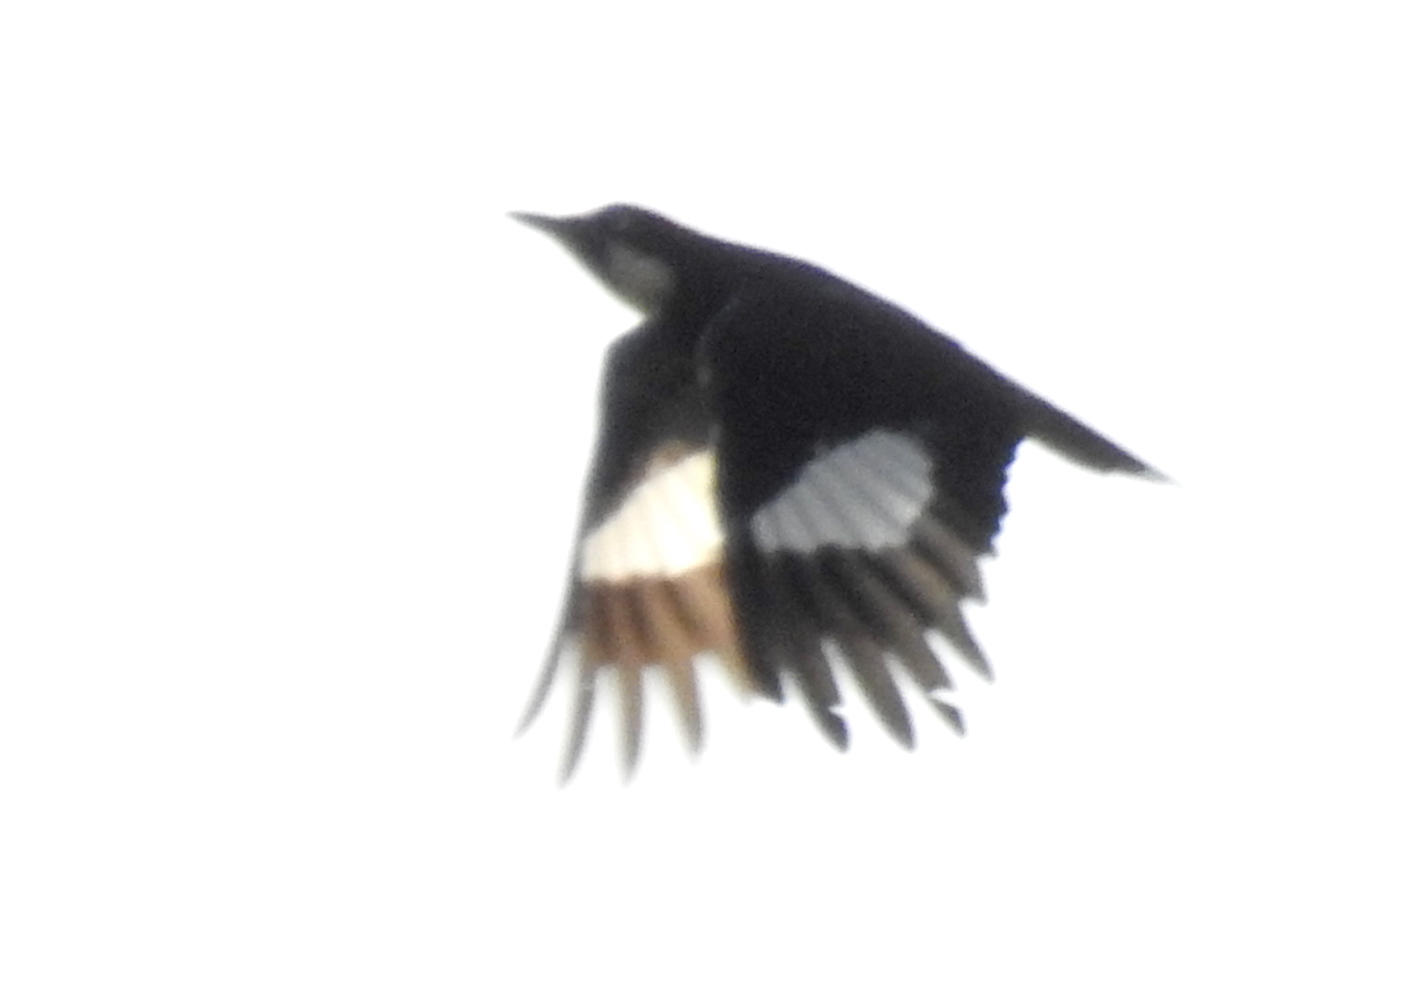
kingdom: Animalia
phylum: Chordata
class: Aves
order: Piciformes
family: Picidae
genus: Melanerpes
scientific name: Melanerpes formicivorus
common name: Acorn woodpecker
